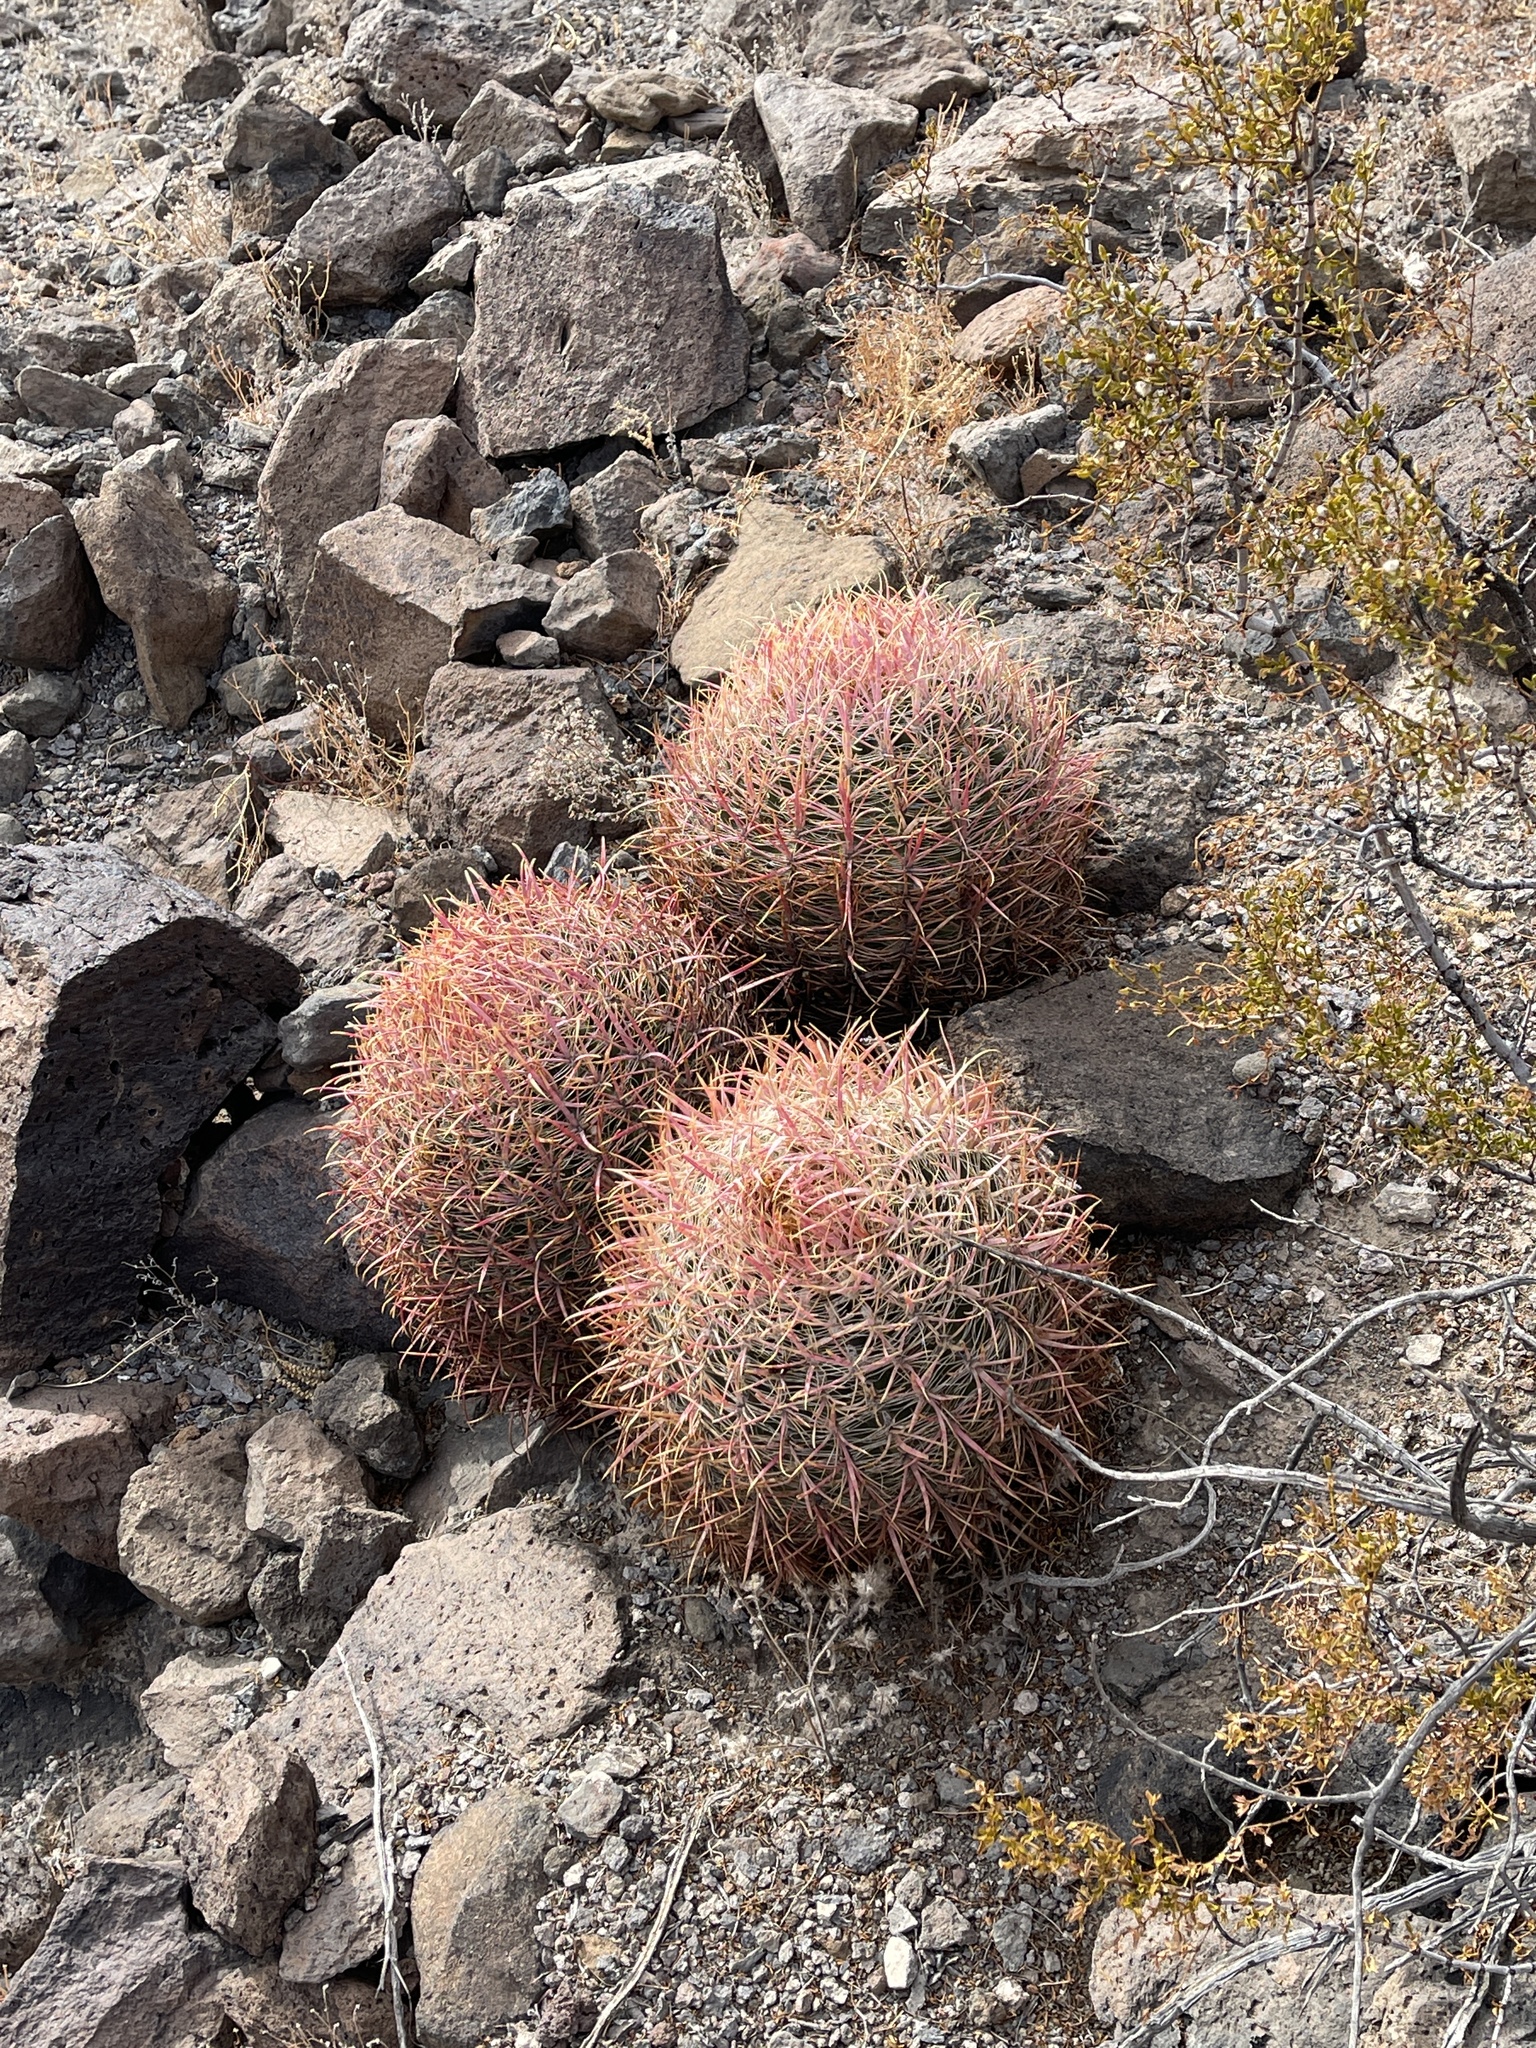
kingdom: Plantae
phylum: Tracheophyta
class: Magnoliopsida
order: Caryophyllales
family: Cactaceae
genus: Ferocactus
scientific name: Ferocactus cylindraceus
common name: California barrel cactus
